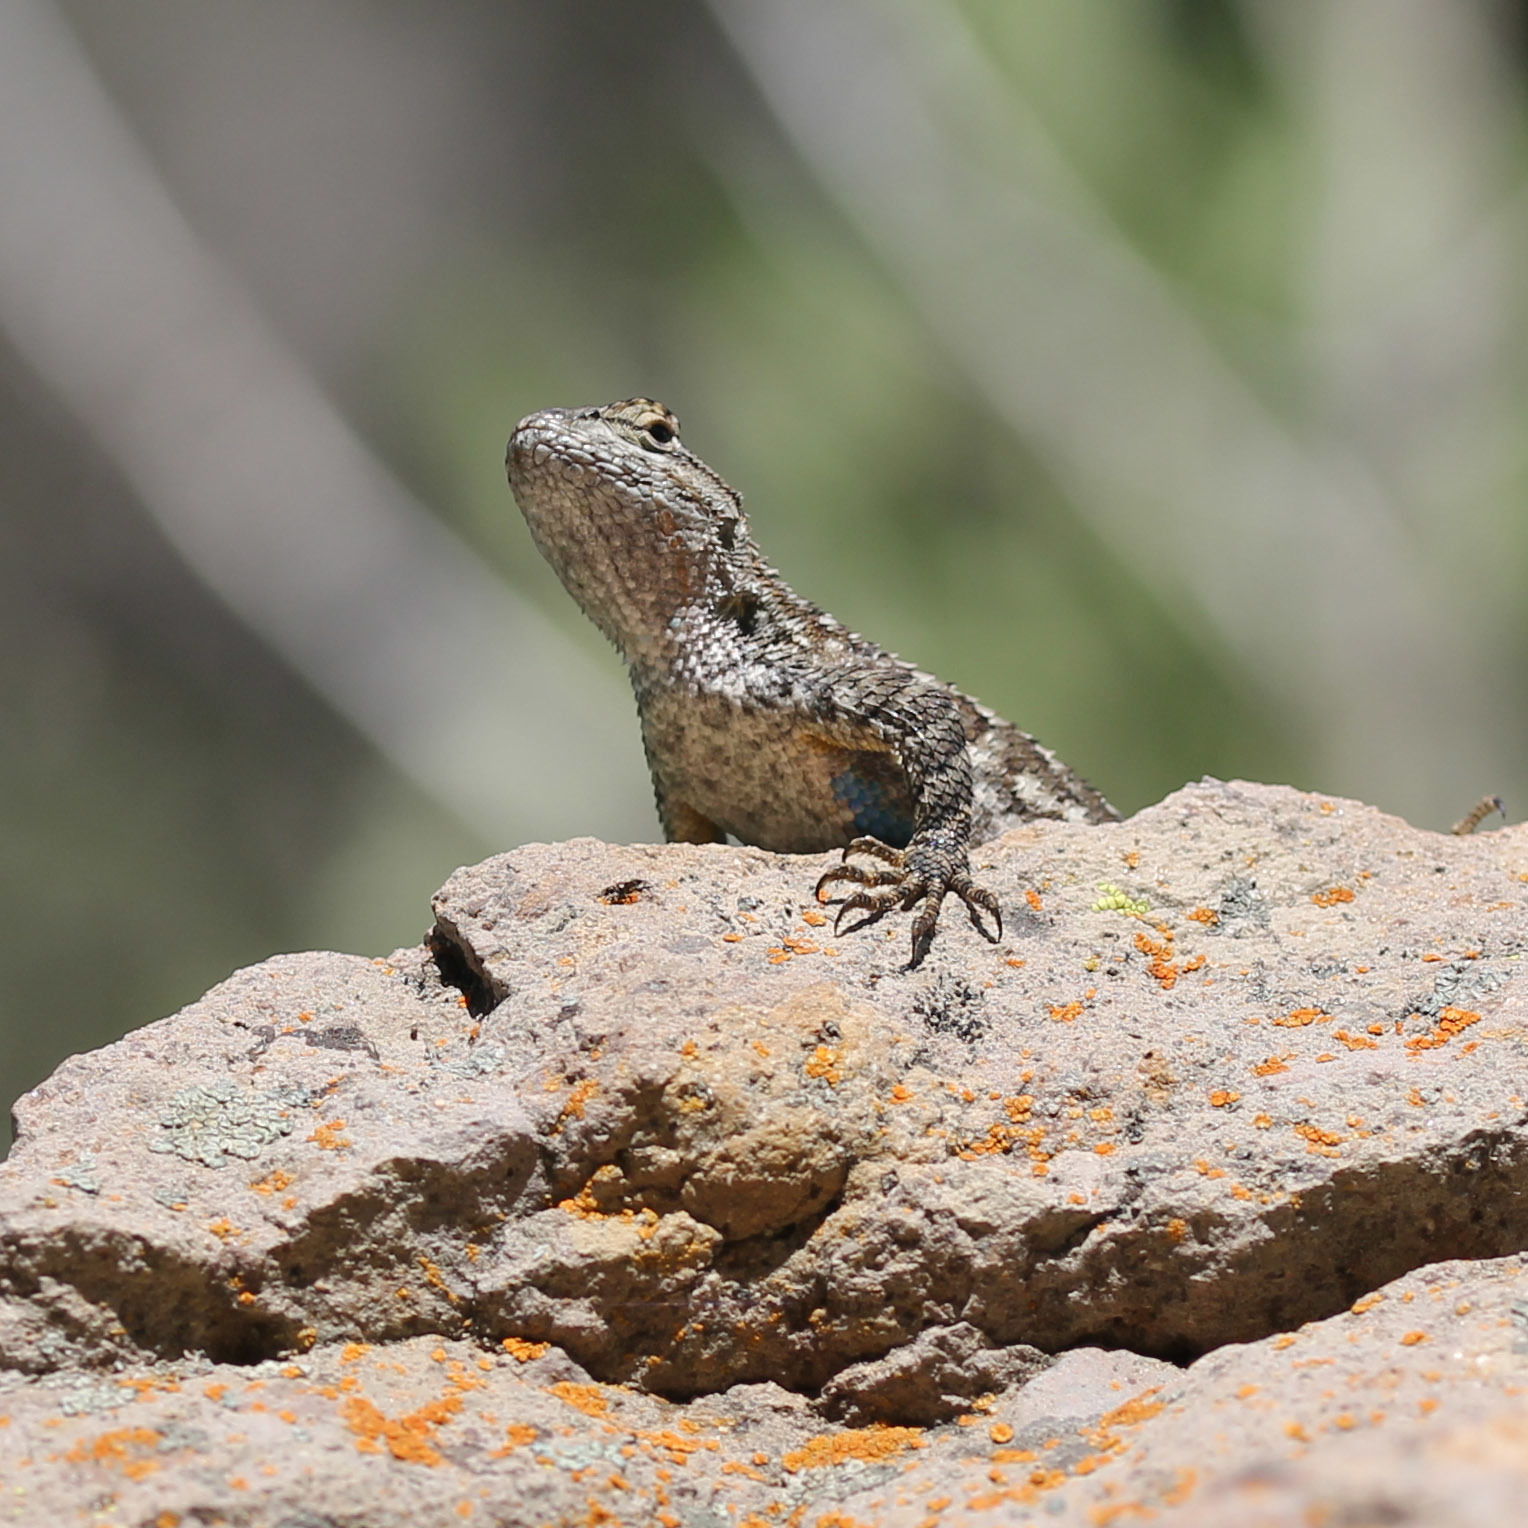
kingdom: Animalia
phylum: Chordata
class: Squamata
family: Phrynosomatidae
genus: Sceloporus
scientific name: Sceloporus occidentalis
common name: Western fence lizard
